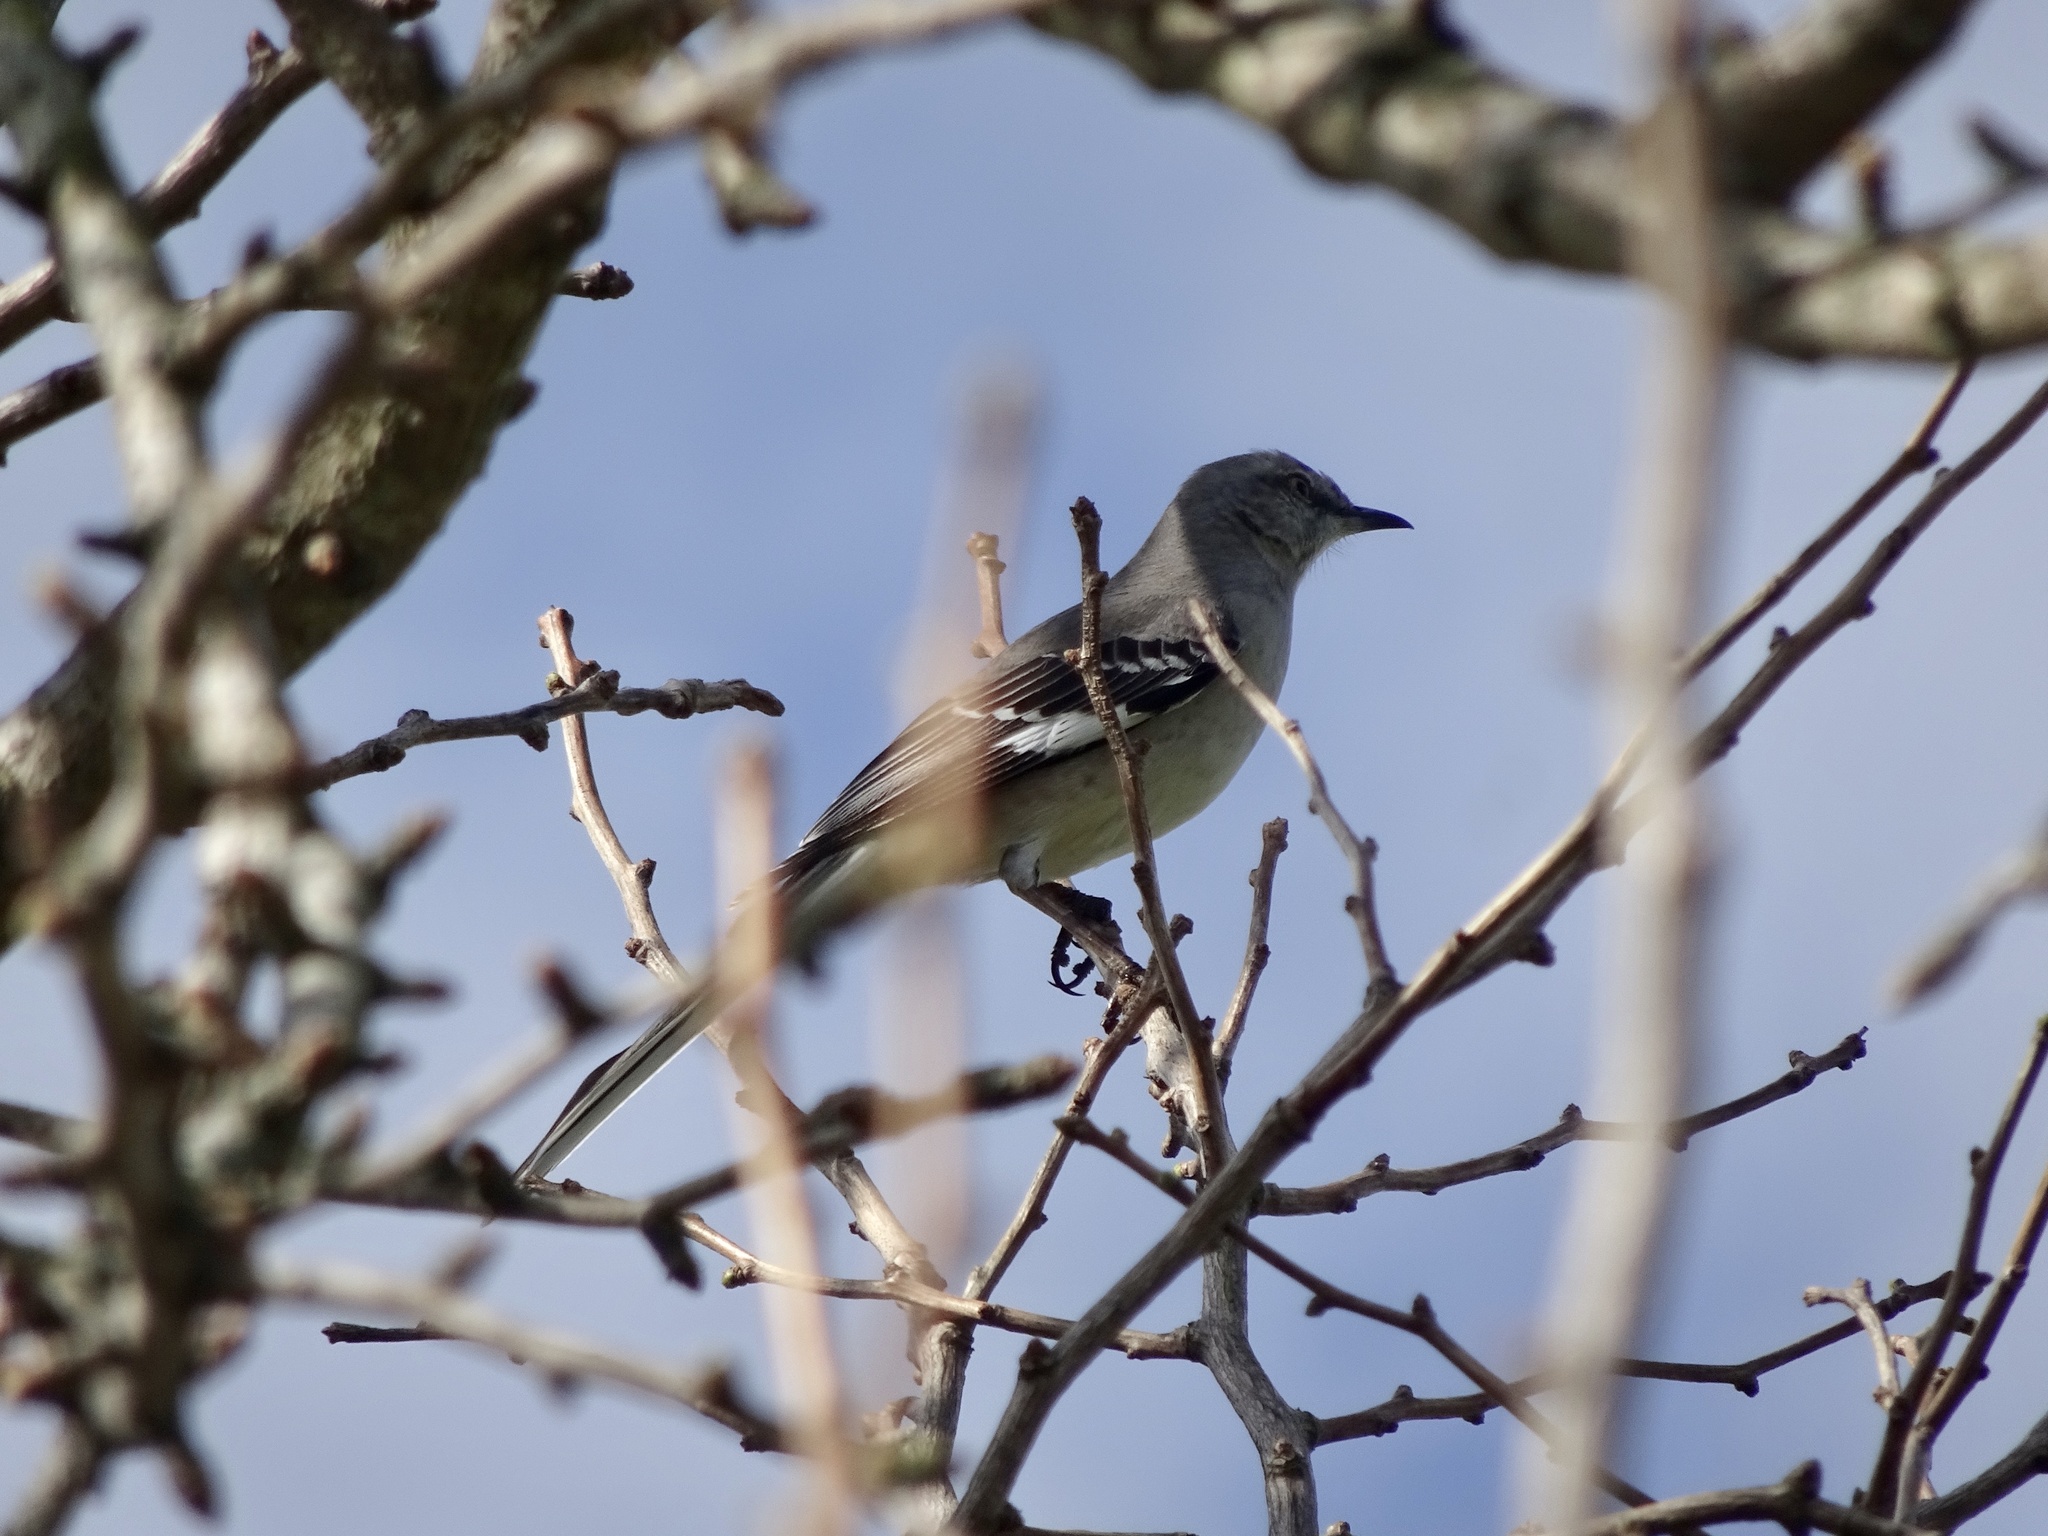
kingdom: Animalia
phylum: Chordata
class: Aves
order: Passeriformes
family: Mimidae
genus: Mimus
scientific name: Mimus polyglottos
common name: Northern mockingbird
